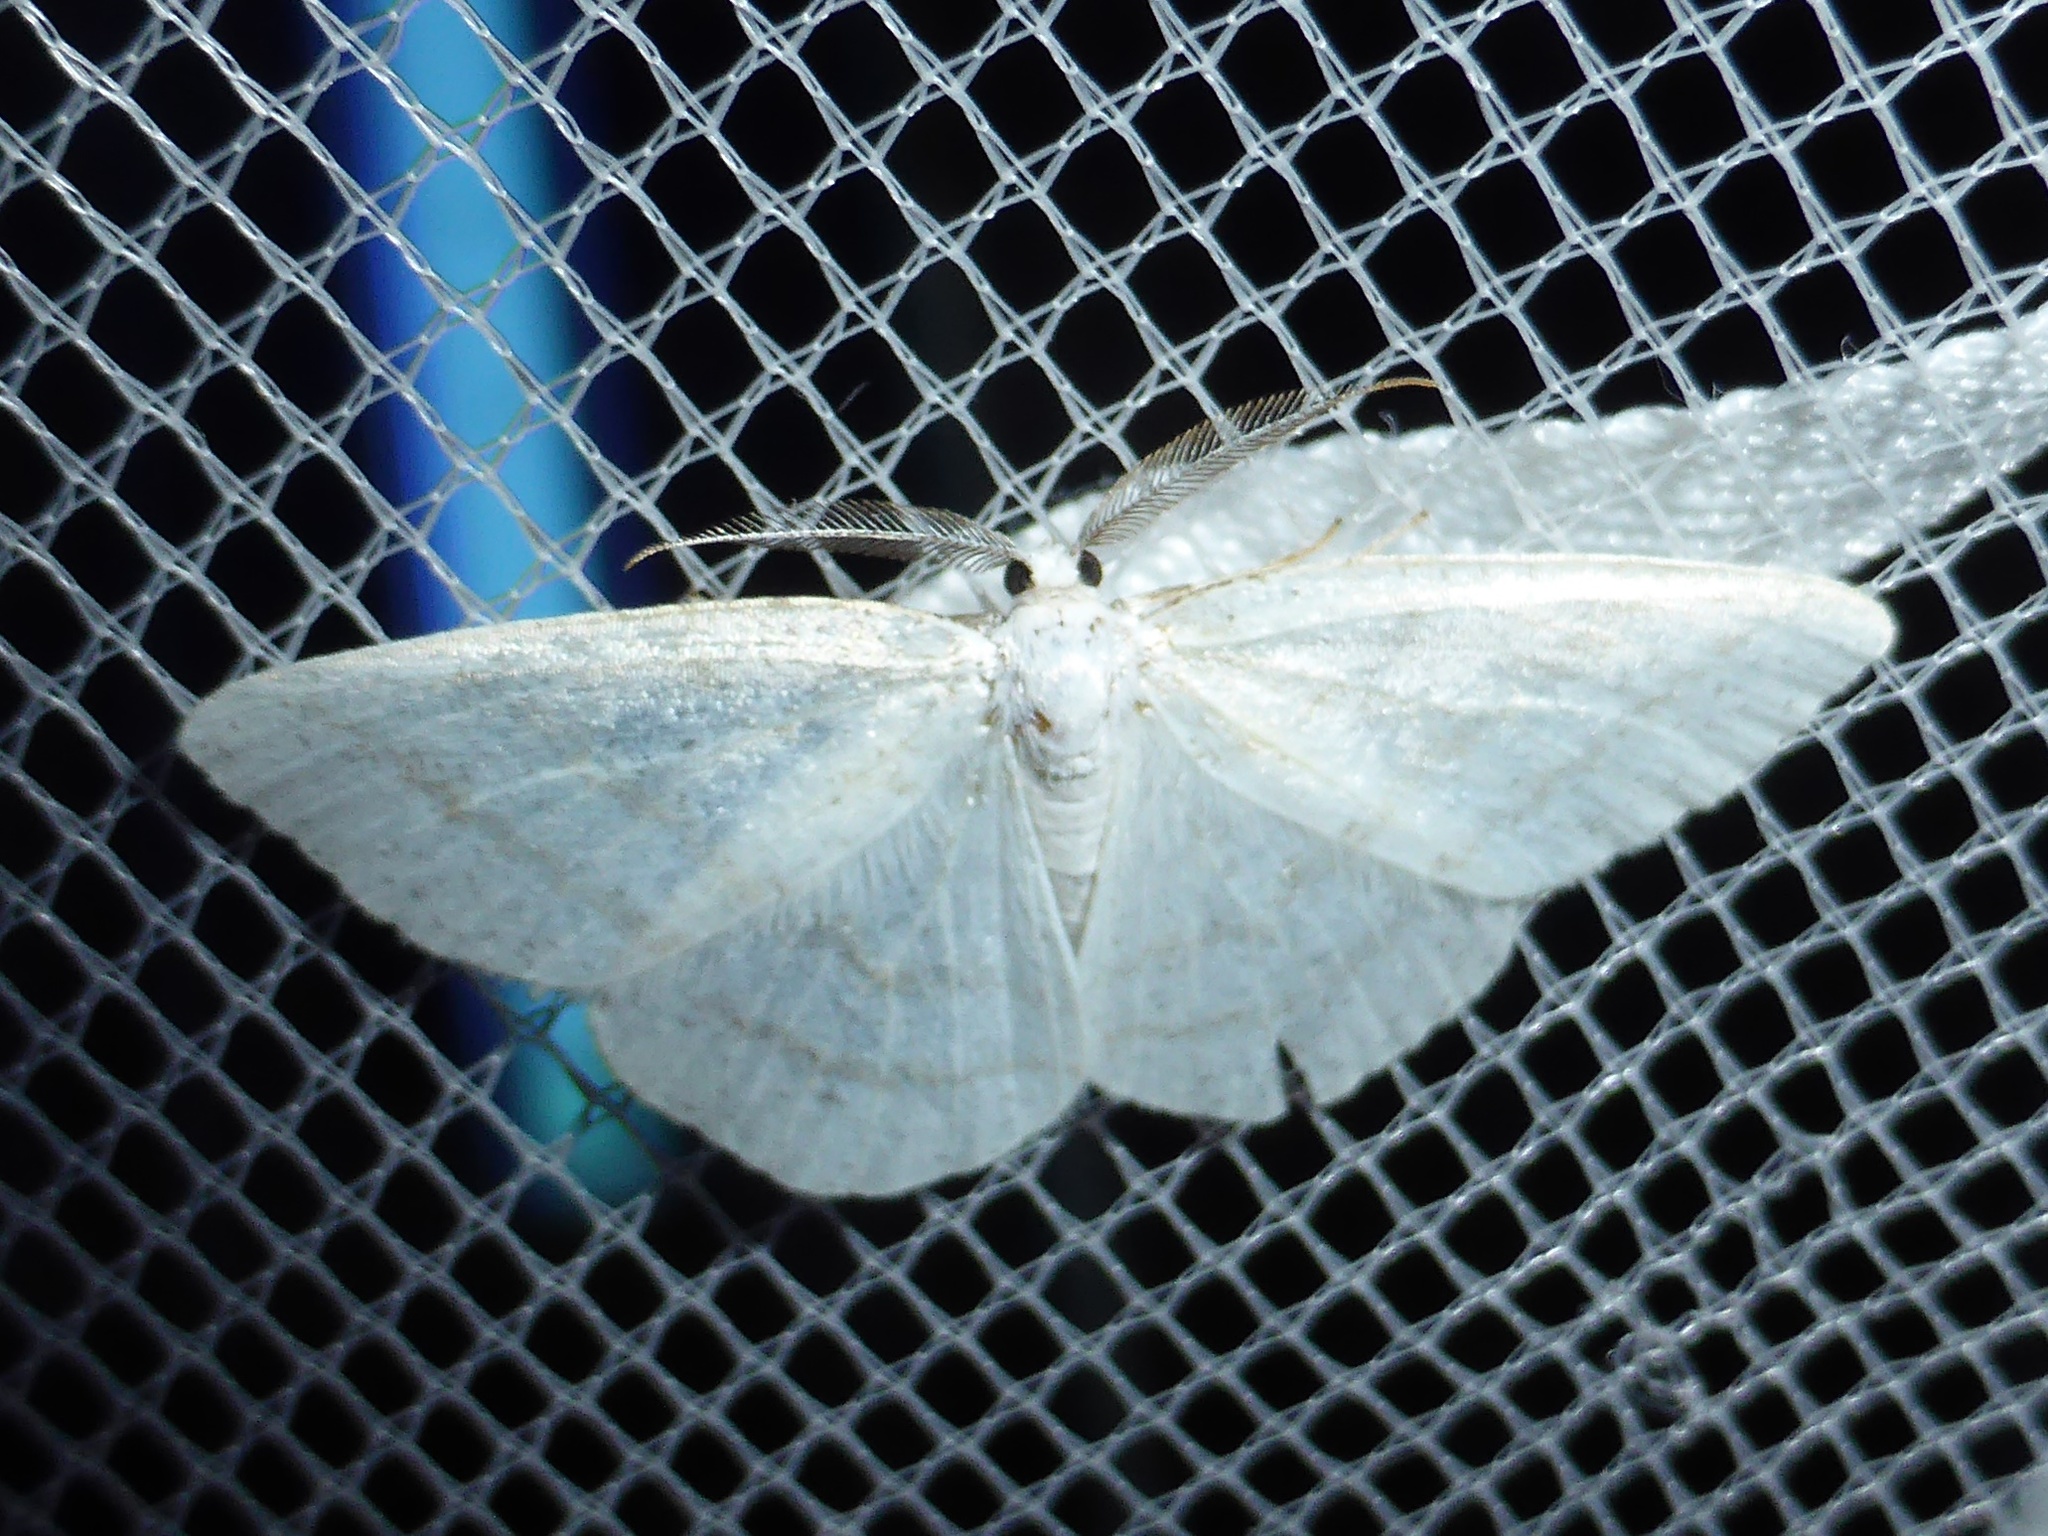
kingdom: Animalia
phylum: Arthropoda
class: Insecta
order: Lepidoptera
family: Geometridae
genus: Cabera
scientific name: Cabera pusaria
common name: Common white wave
